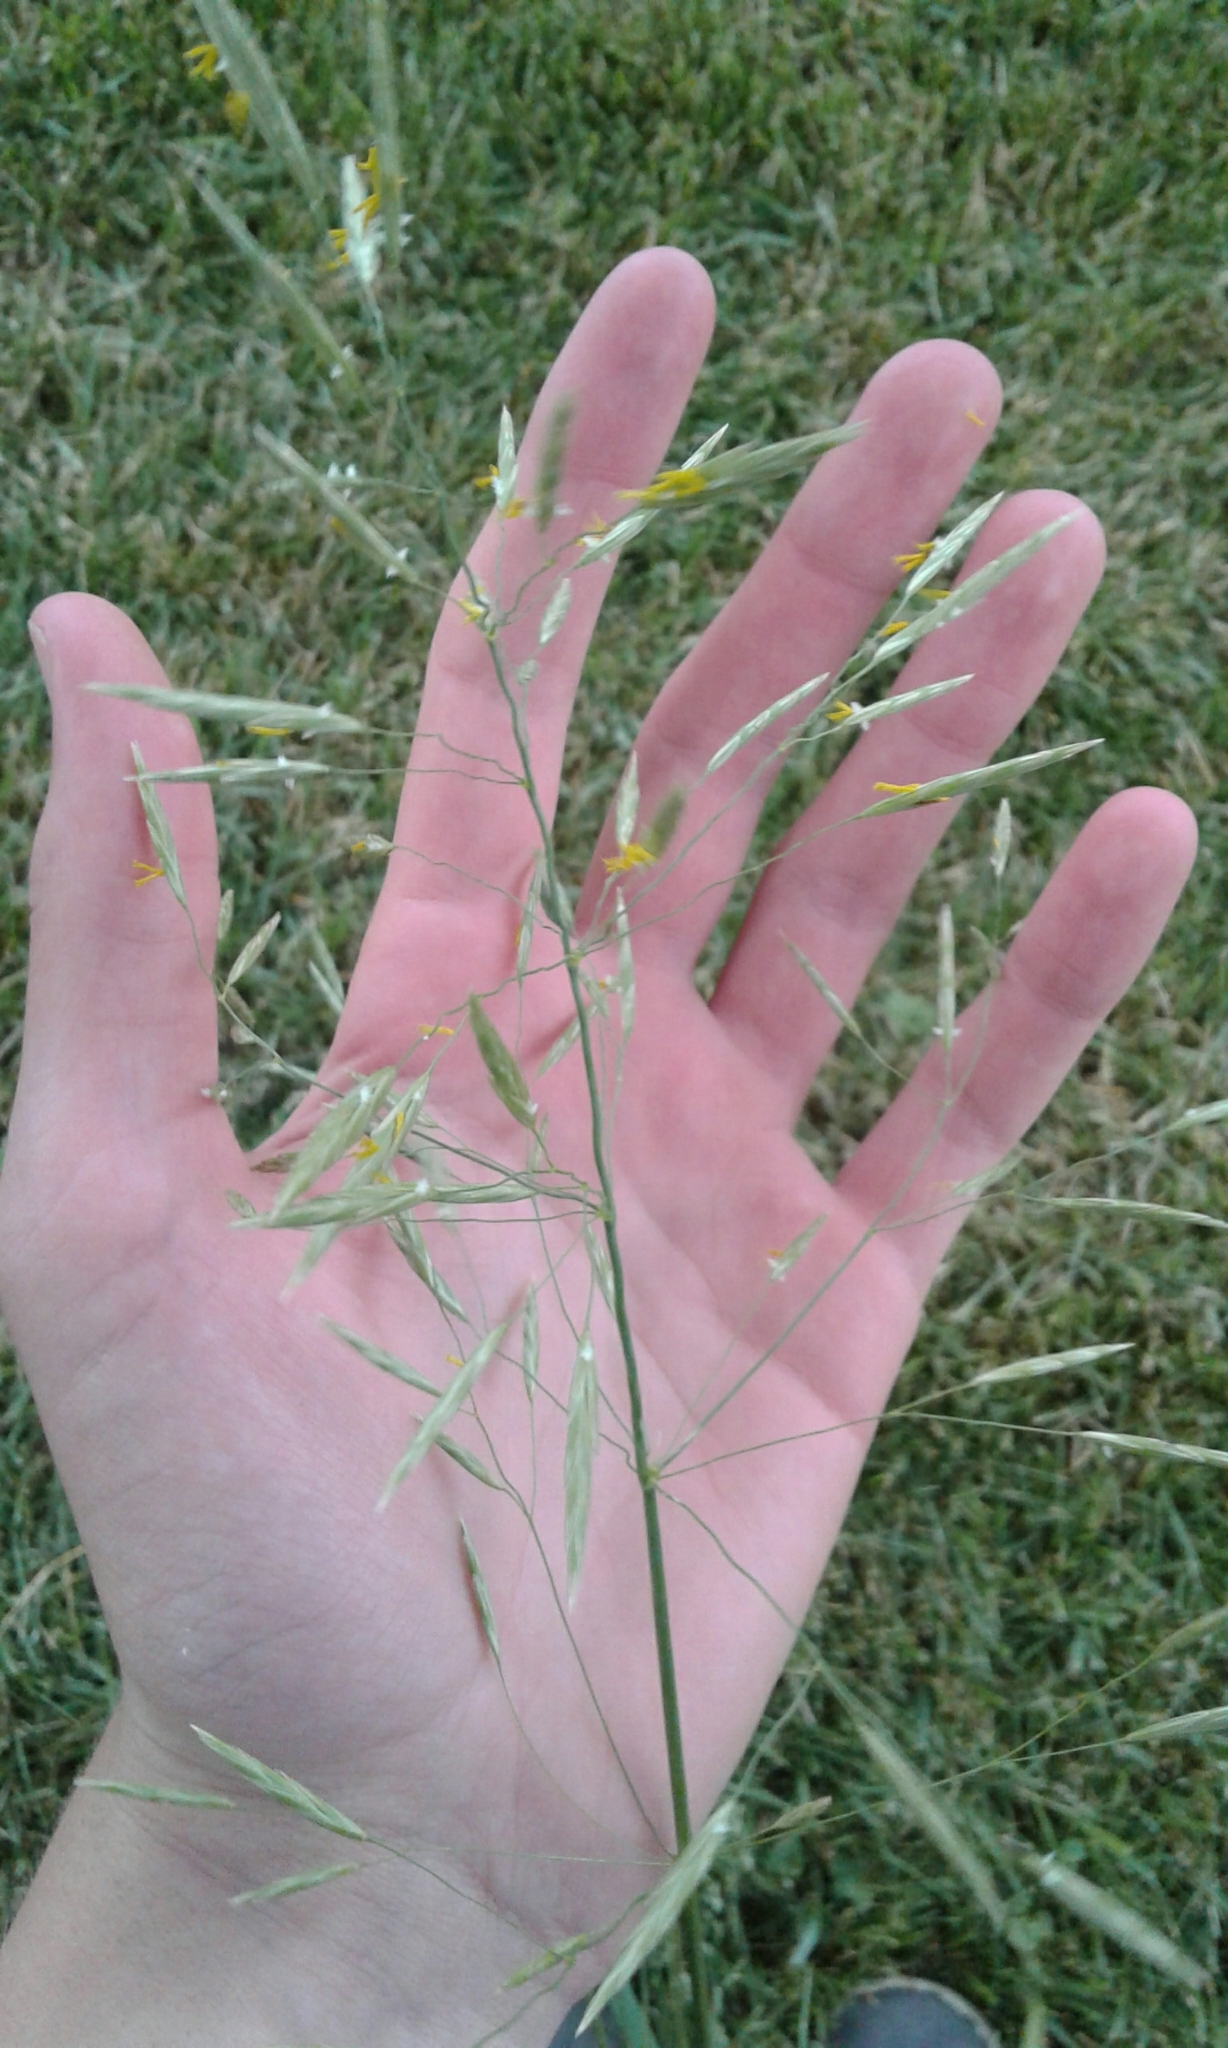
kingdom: Plantae
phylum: Tracheophyta
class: Liliopsida
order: Poales
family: Poaceae
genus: Bromus
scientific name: Bromus inermis
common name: Smooth brome
